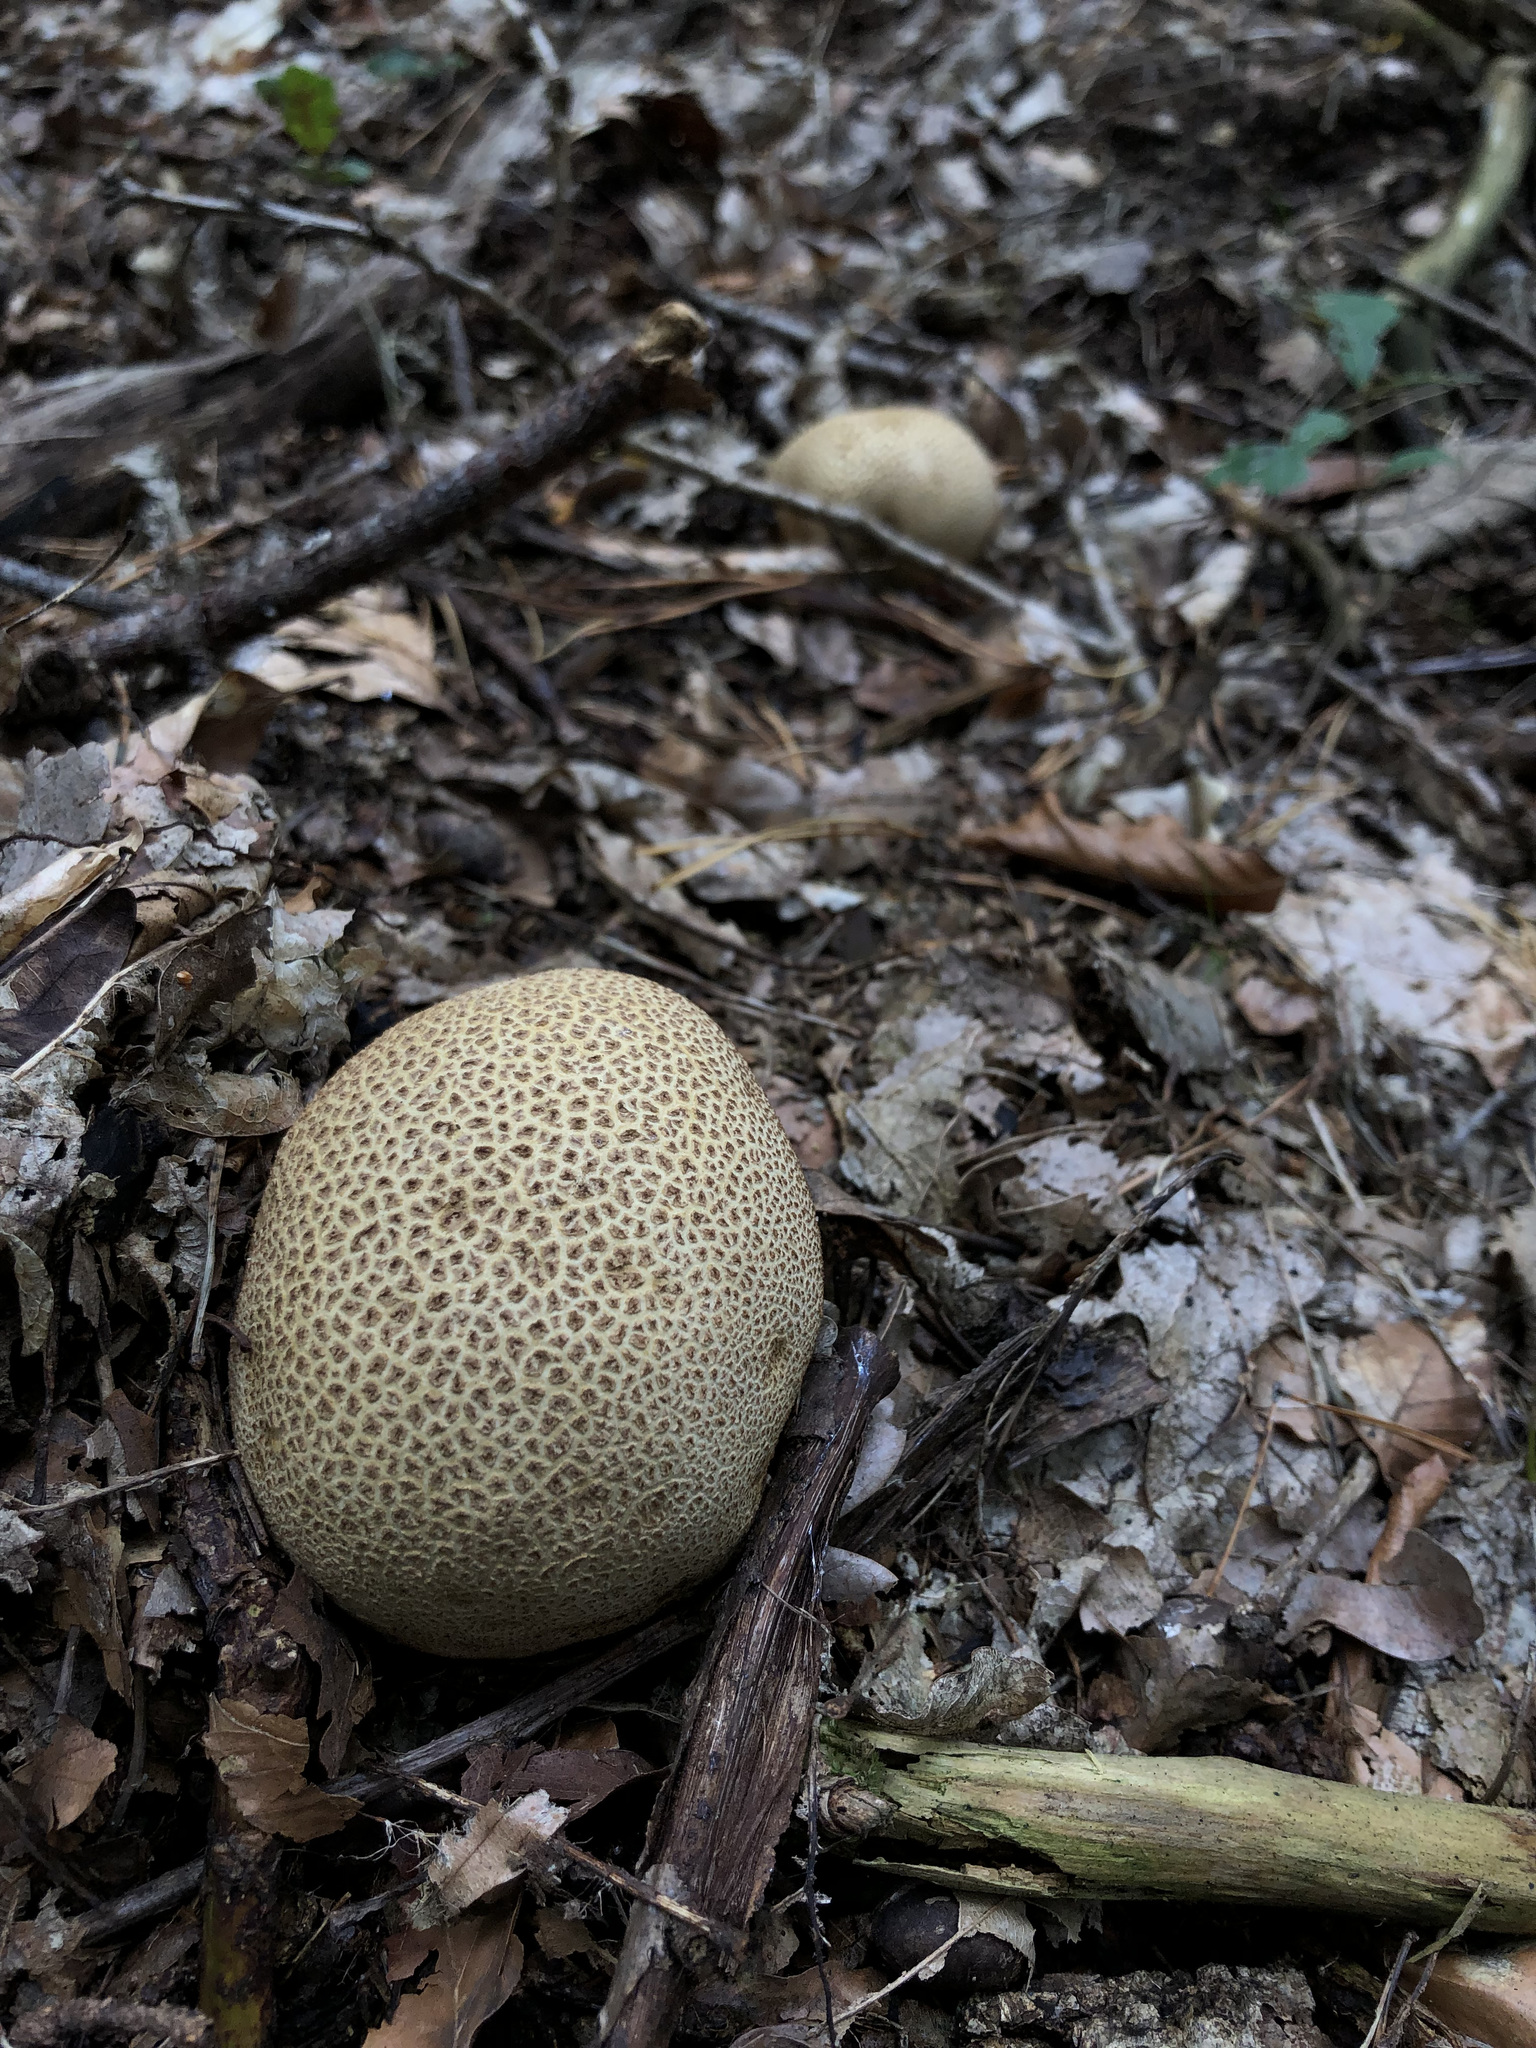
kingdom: Fungi
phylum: Basidiomycota
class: Agaricomycetes
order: Boletales
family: Sclerodermataceae
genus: Scleroderma
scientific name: Scleroderma citrinum
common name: Common earthball
